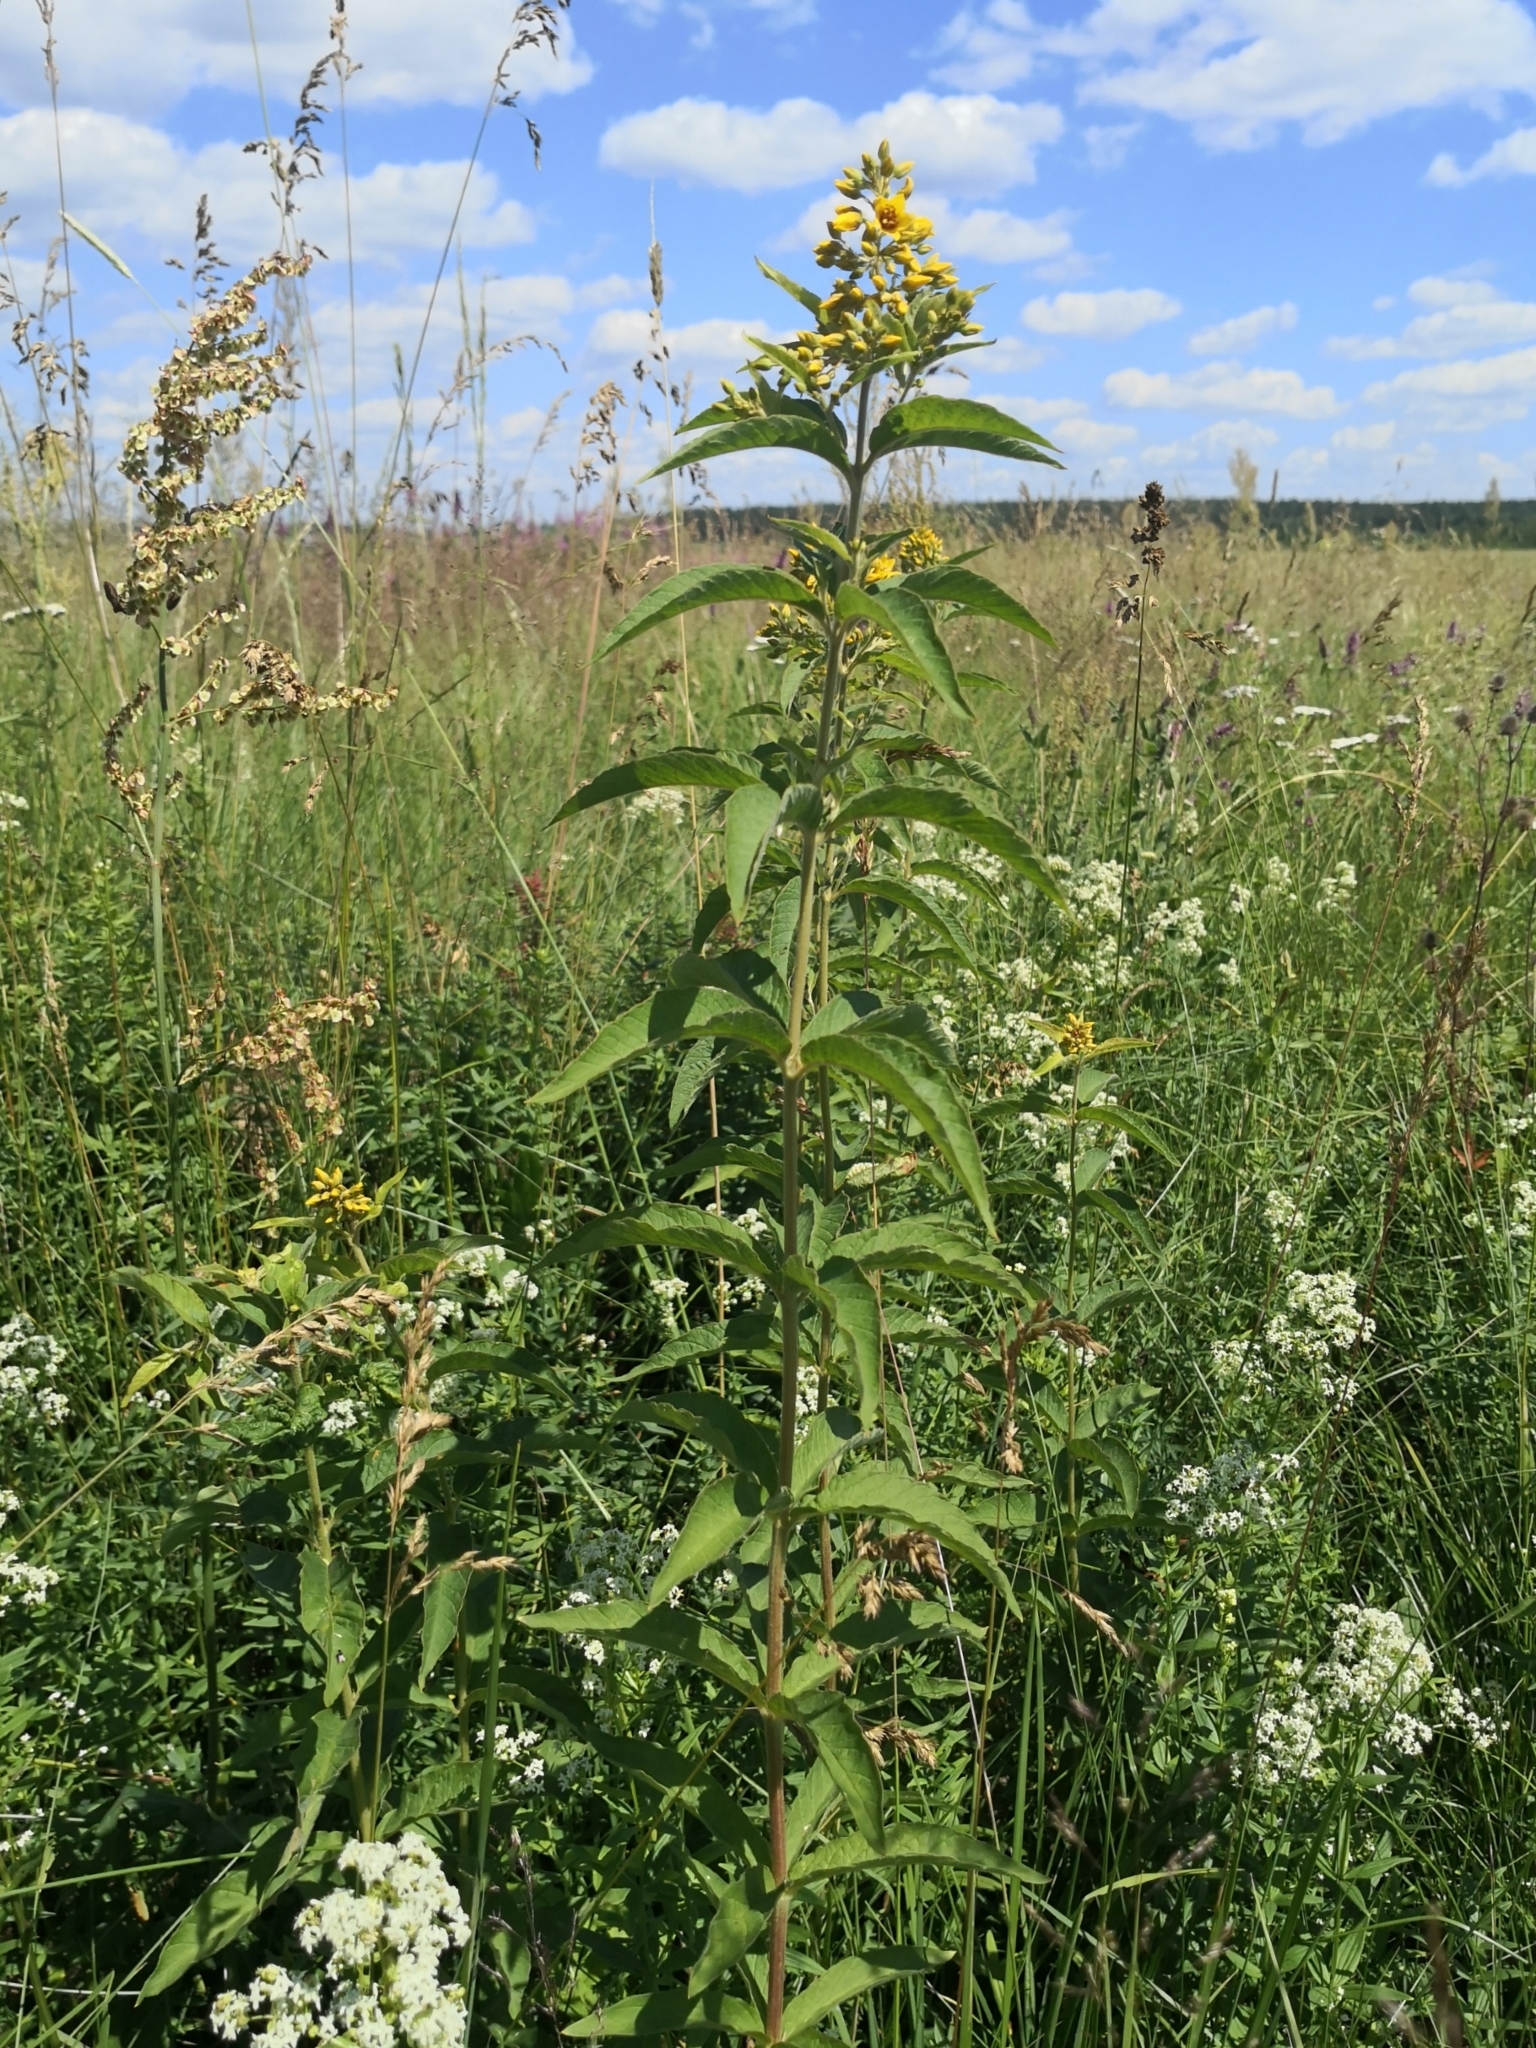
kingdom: Plantae
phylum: Tracheophyta
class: Magnoliopsida
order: Ericales
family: Primulaceae
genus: Lysimachia
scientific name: Lysimachia vulgaris
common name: Yellow loosestrife
